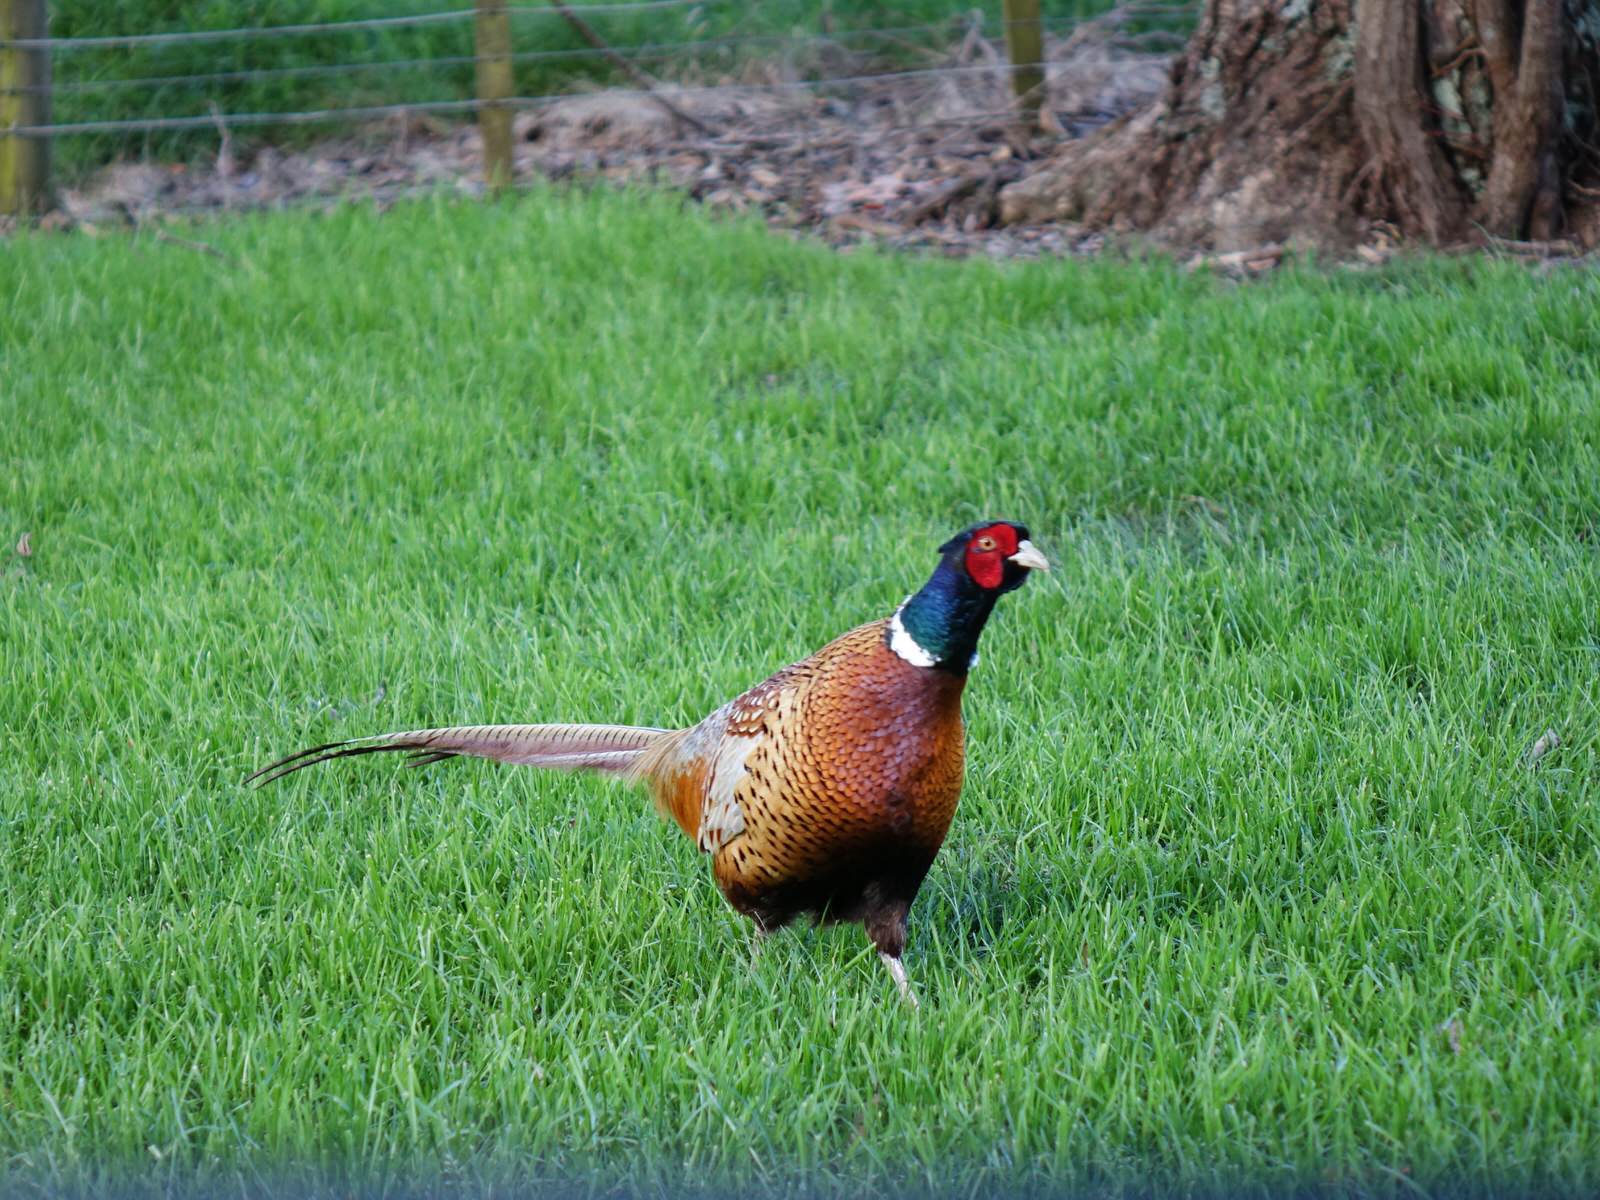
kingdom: Animalia
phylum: Chordata
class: Aves
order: Galliformes
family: Phasianidae
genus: Phasianus
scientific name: Phasianus colchicus
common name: Common pheasant
